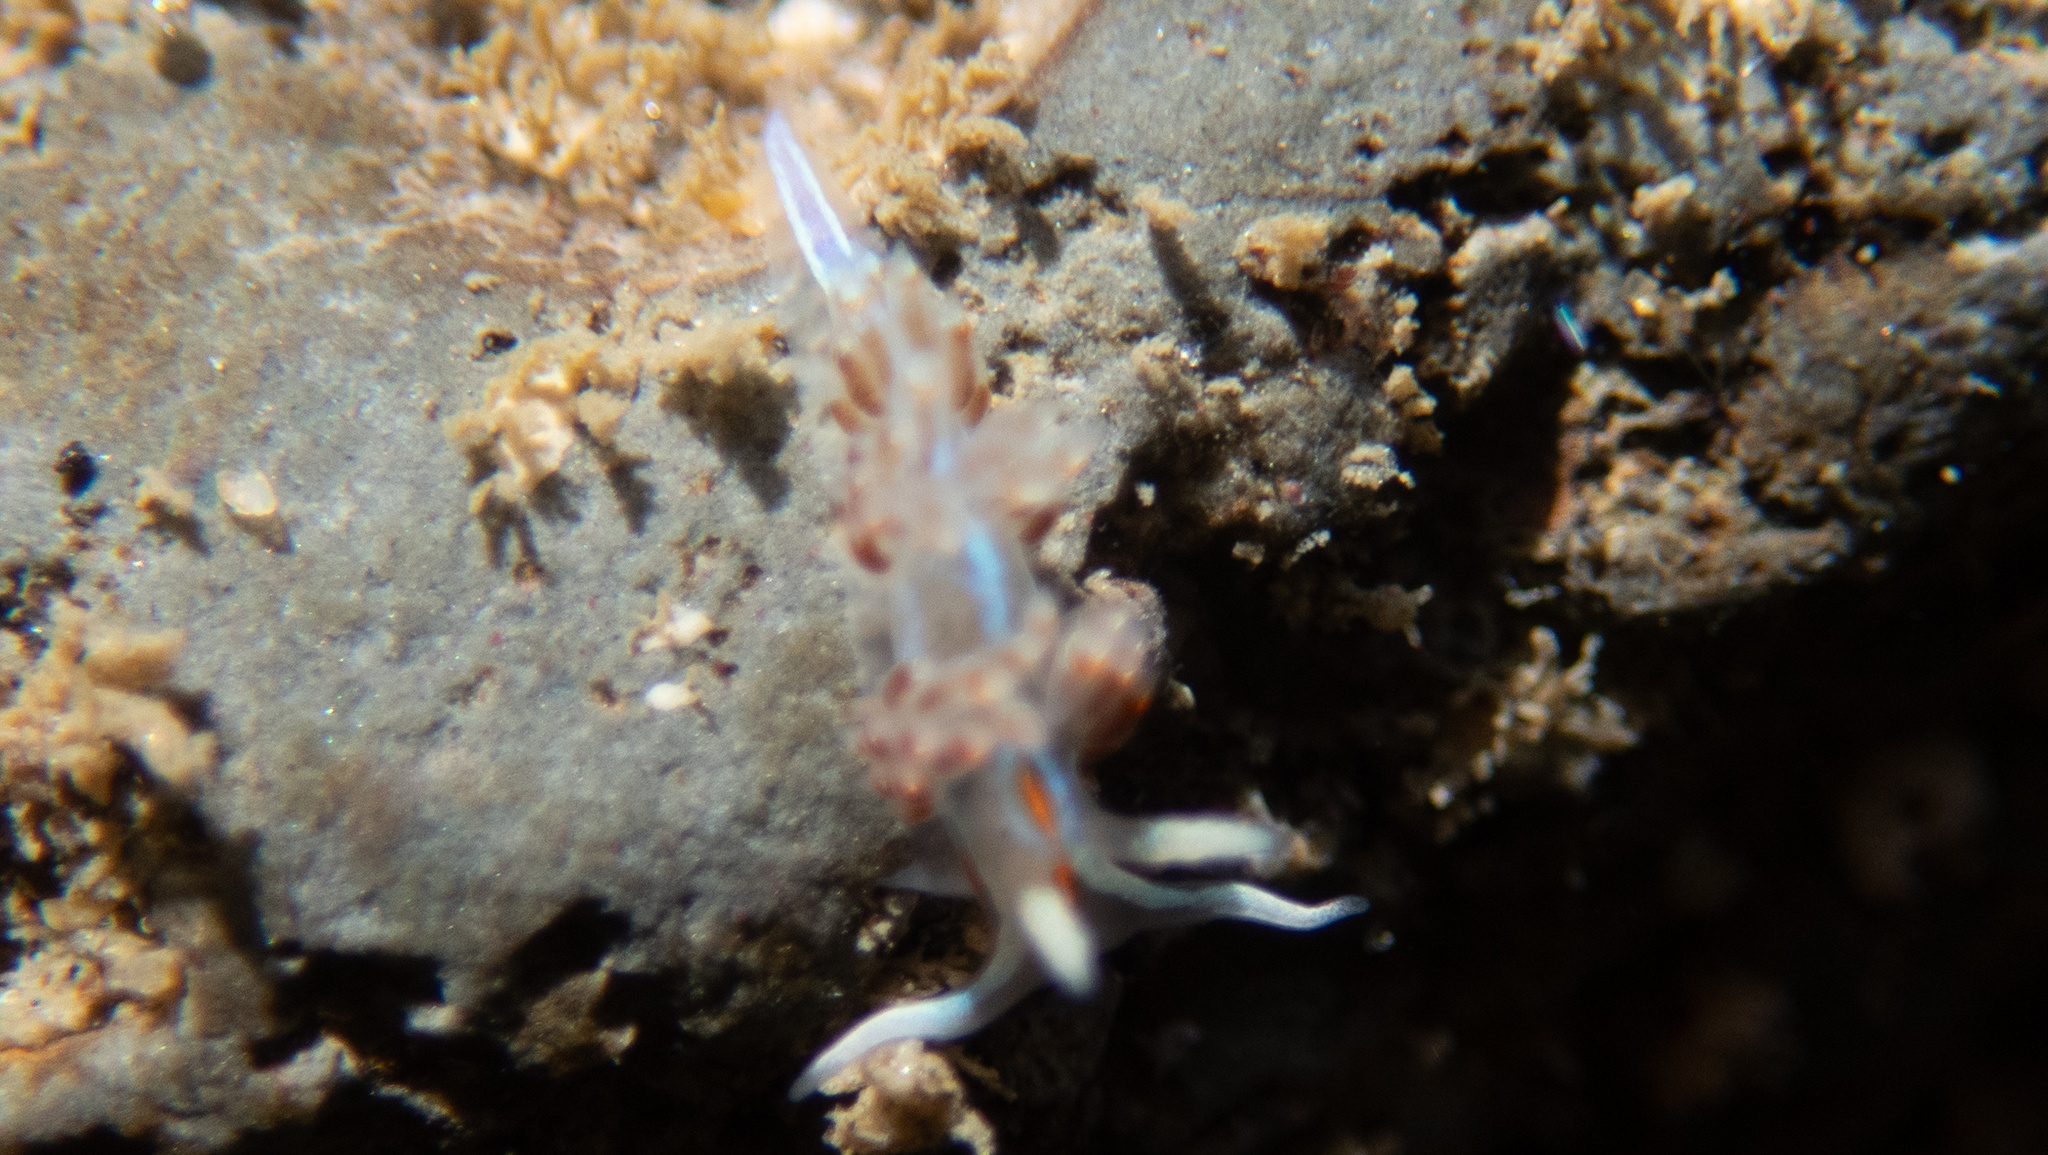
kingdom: Animalia
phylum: Mollusca
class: Gastropoda
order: Nudibranchia
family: Myrrhinidae
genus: Hermissenda
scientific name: Hermissenda opalescens
